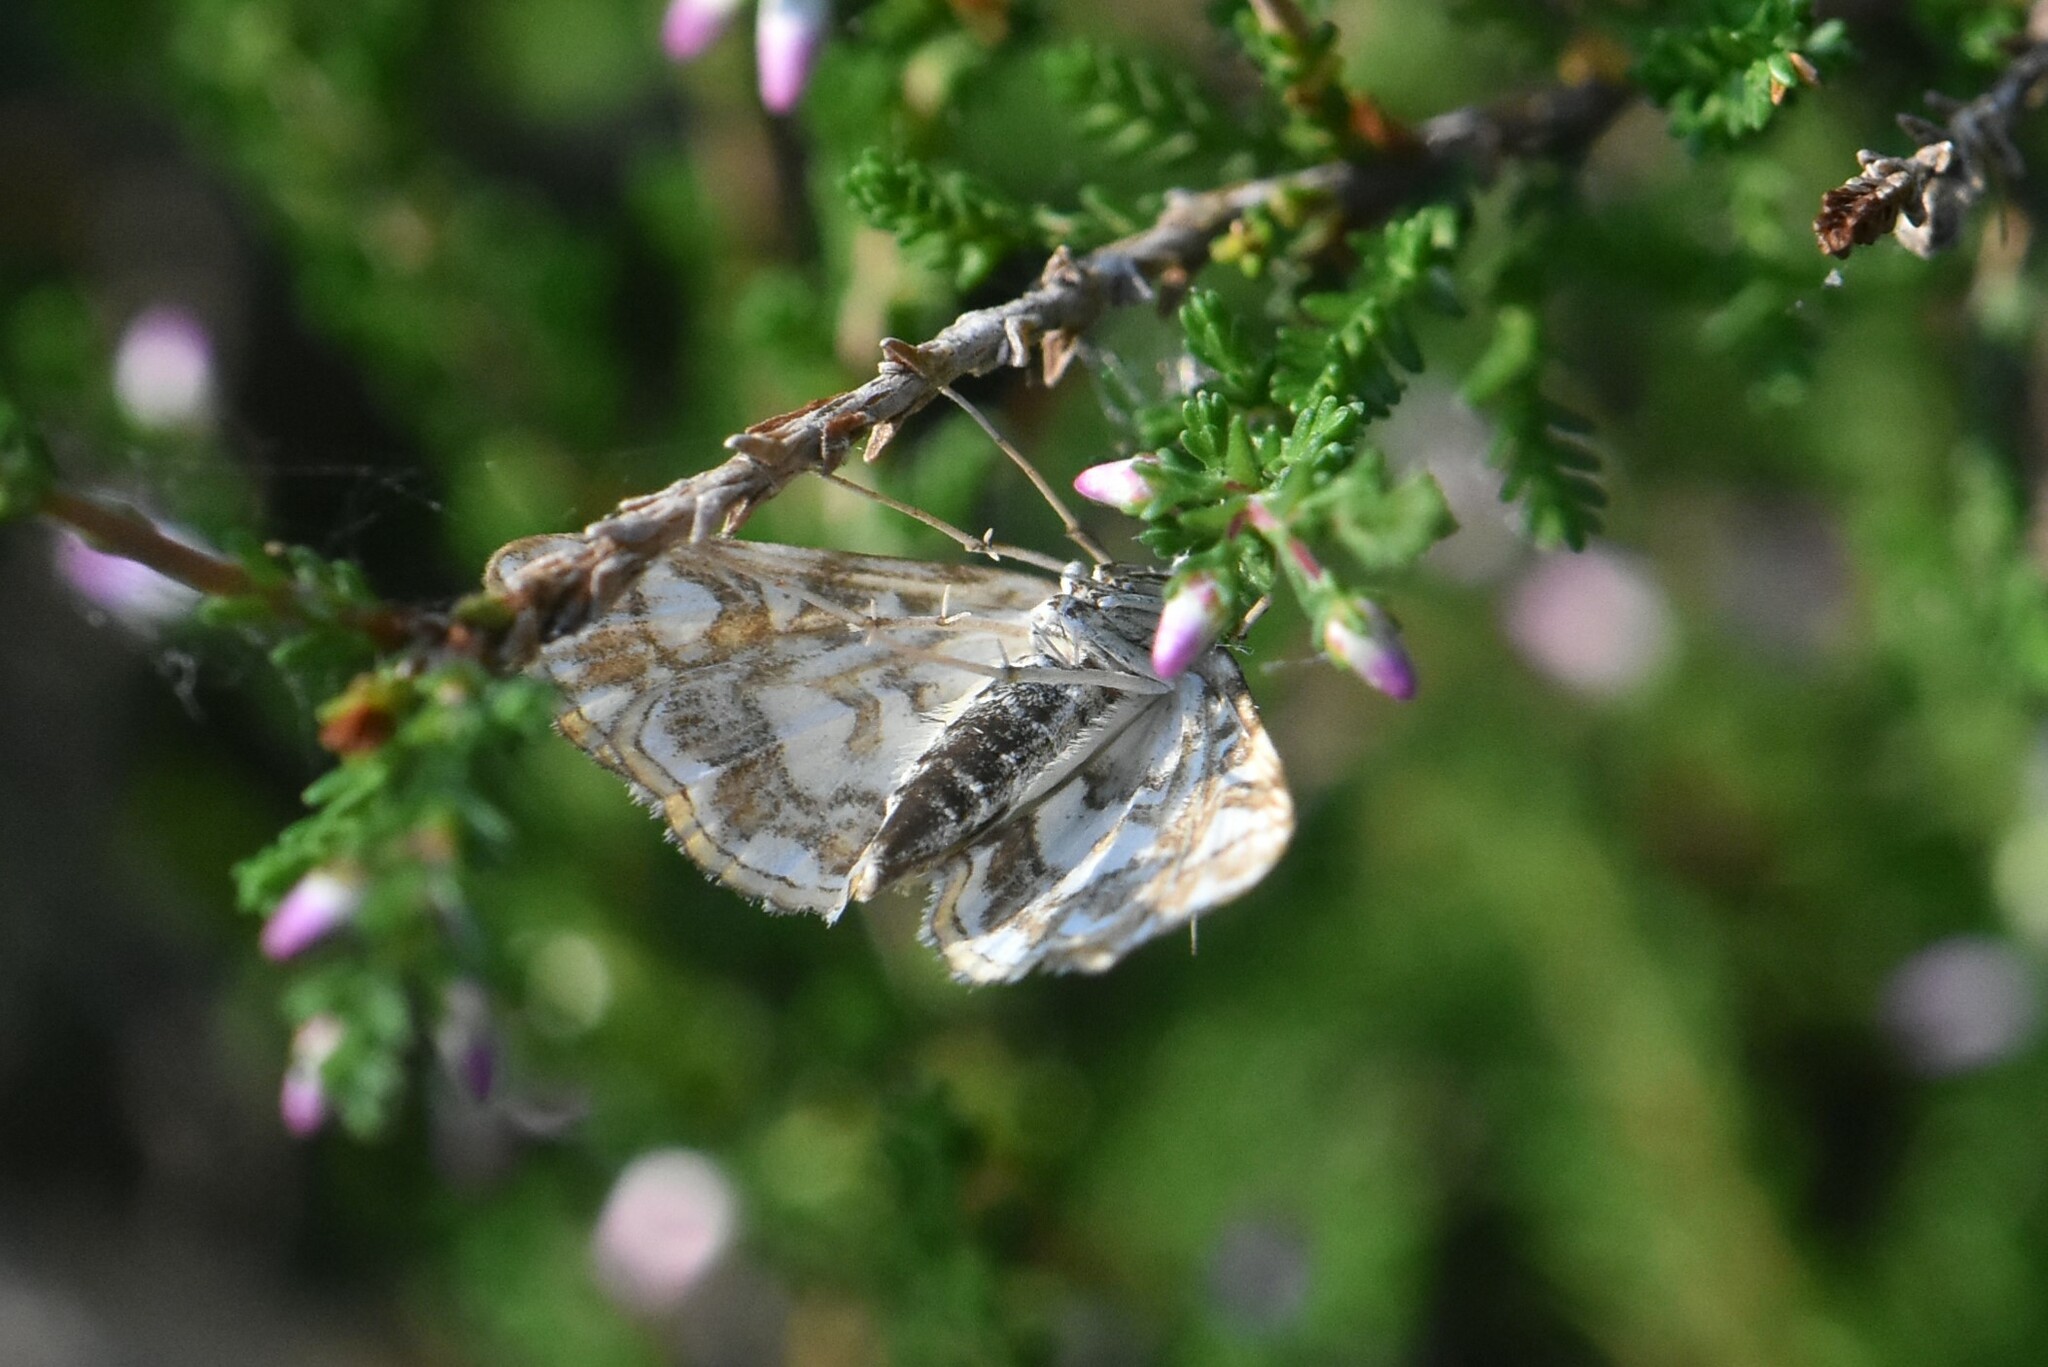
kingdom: Animalia
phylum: Arthropoda
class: Insecta
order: Lepidoptera
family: Crambidae
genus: Elophila
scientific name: Elophila nymphaeata
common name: Brown china-mark
